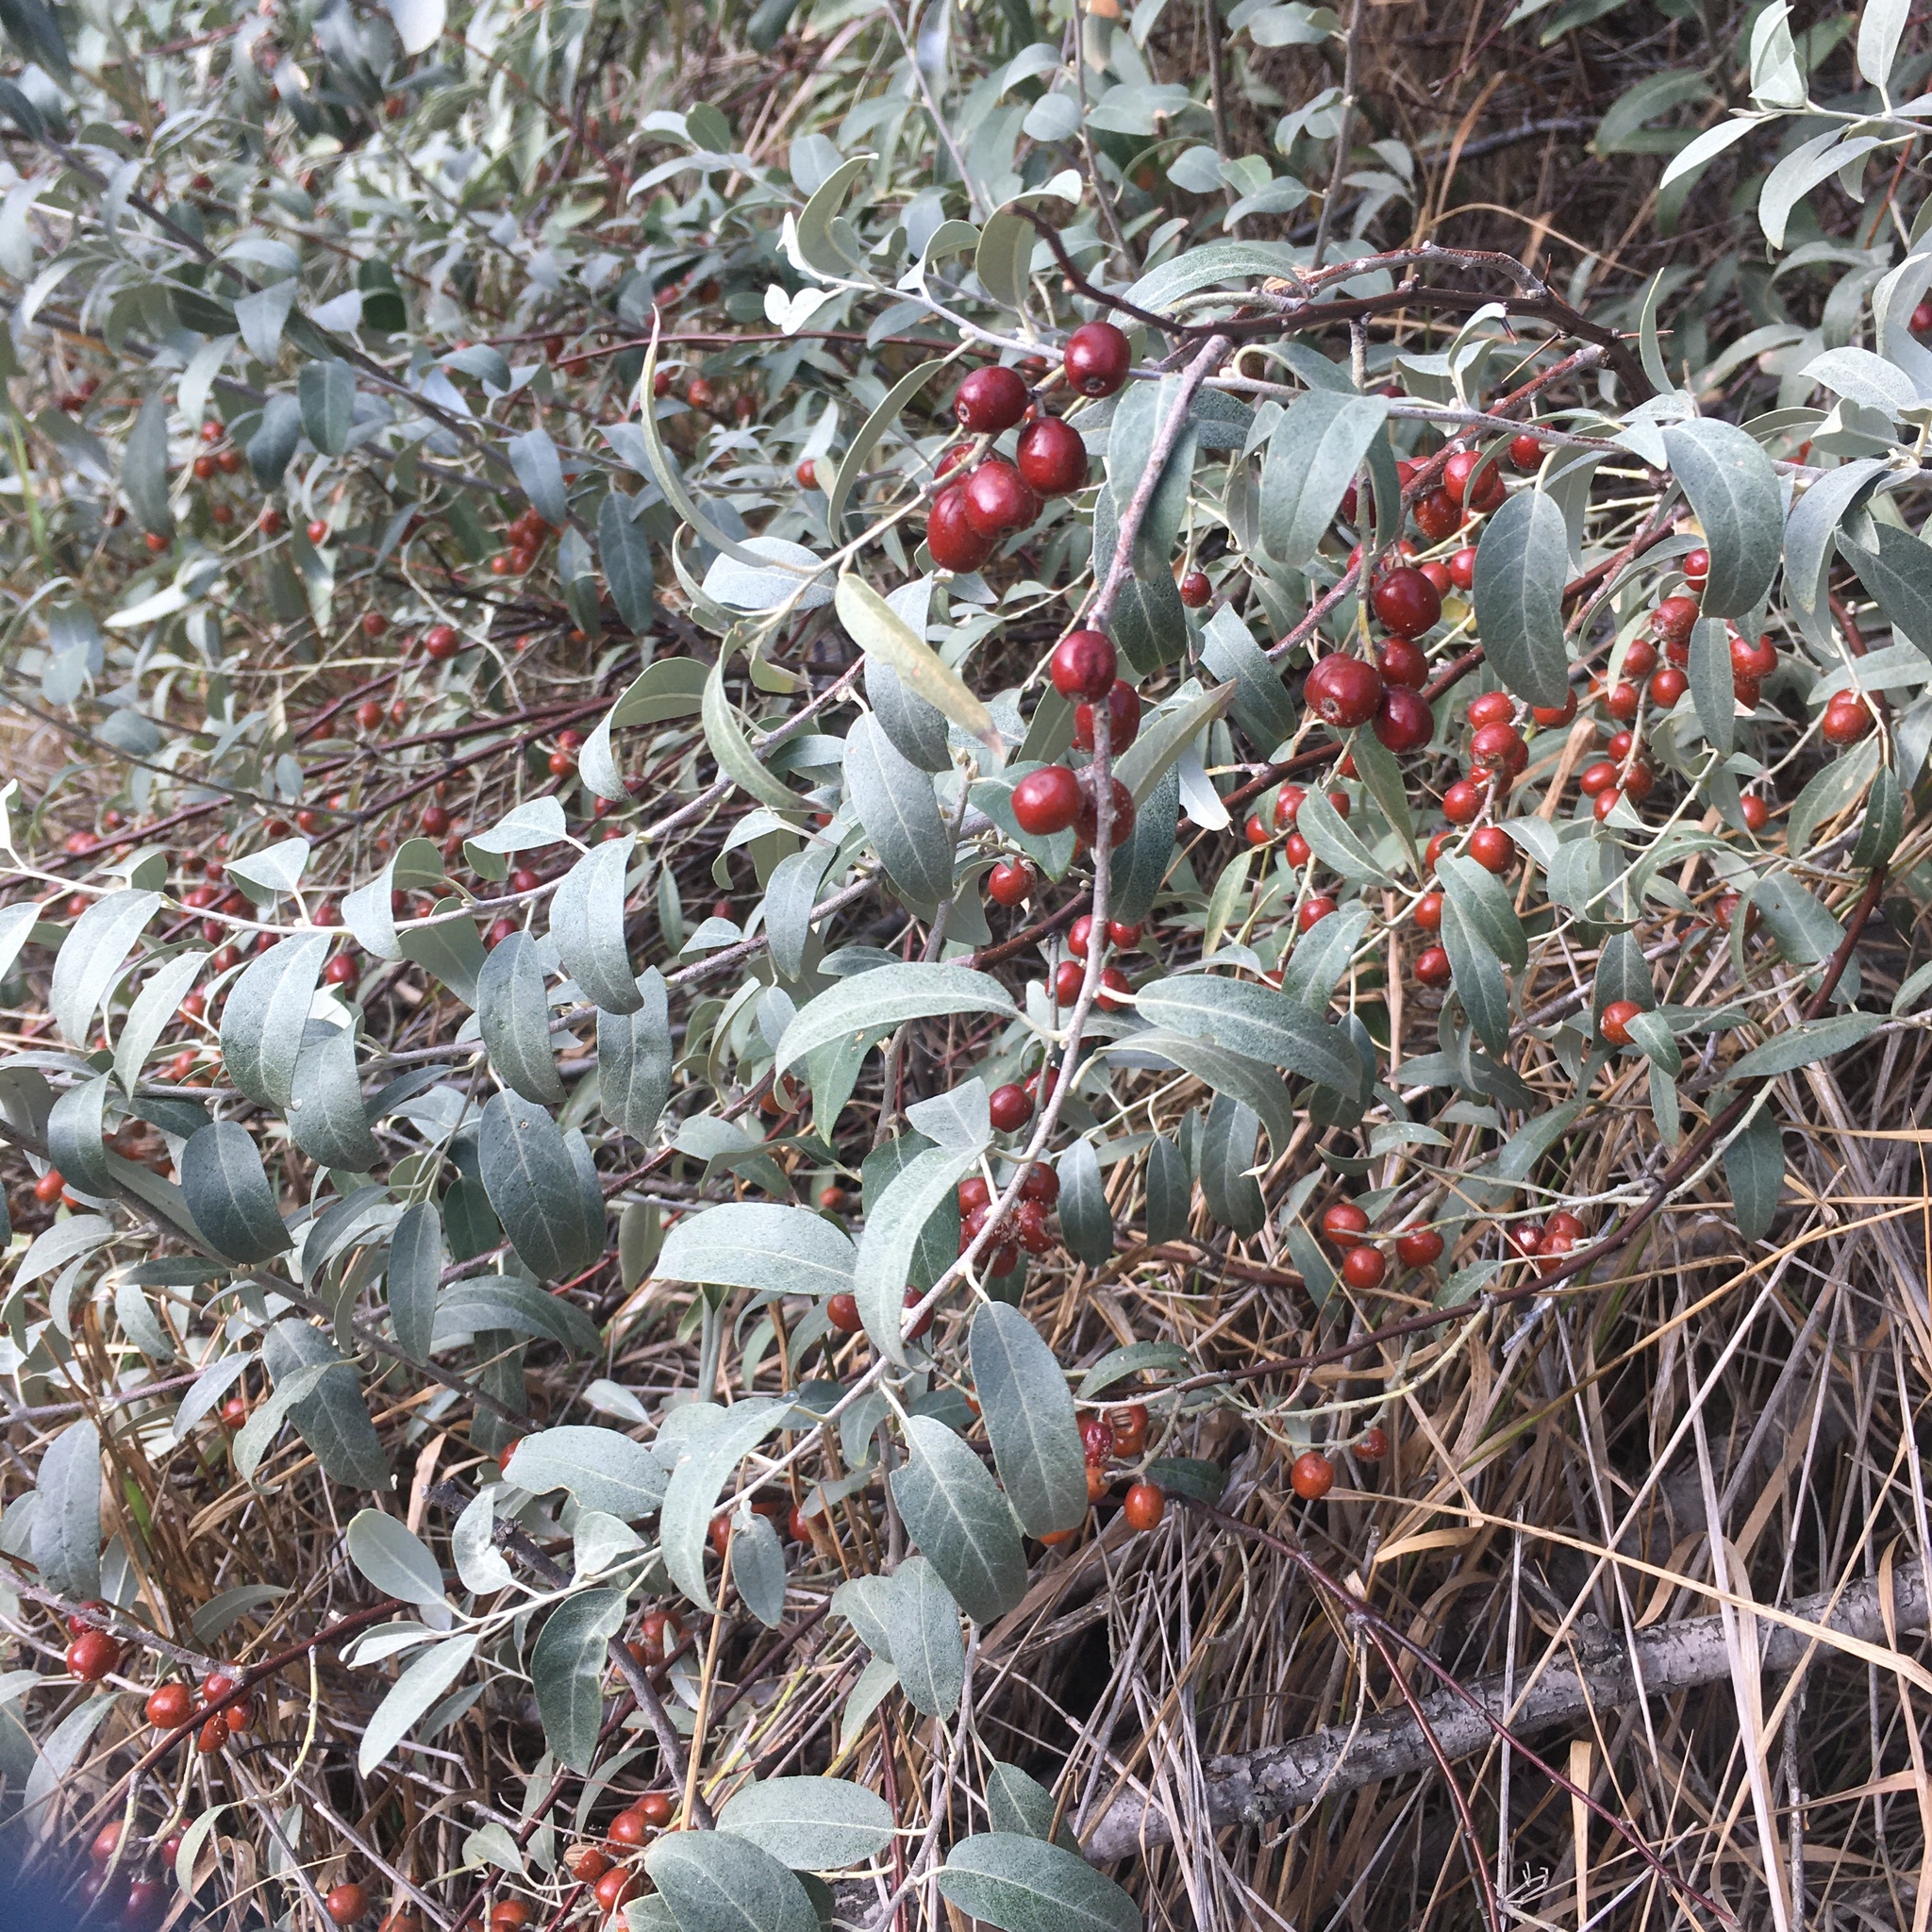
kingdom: Plantae
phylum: Tracheophyta
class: Magnoliopsida
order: Rosales
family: Elaeagnaceae
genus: Elaeagnus
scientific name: Elaeagnus angustifolia
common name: Russian olive
